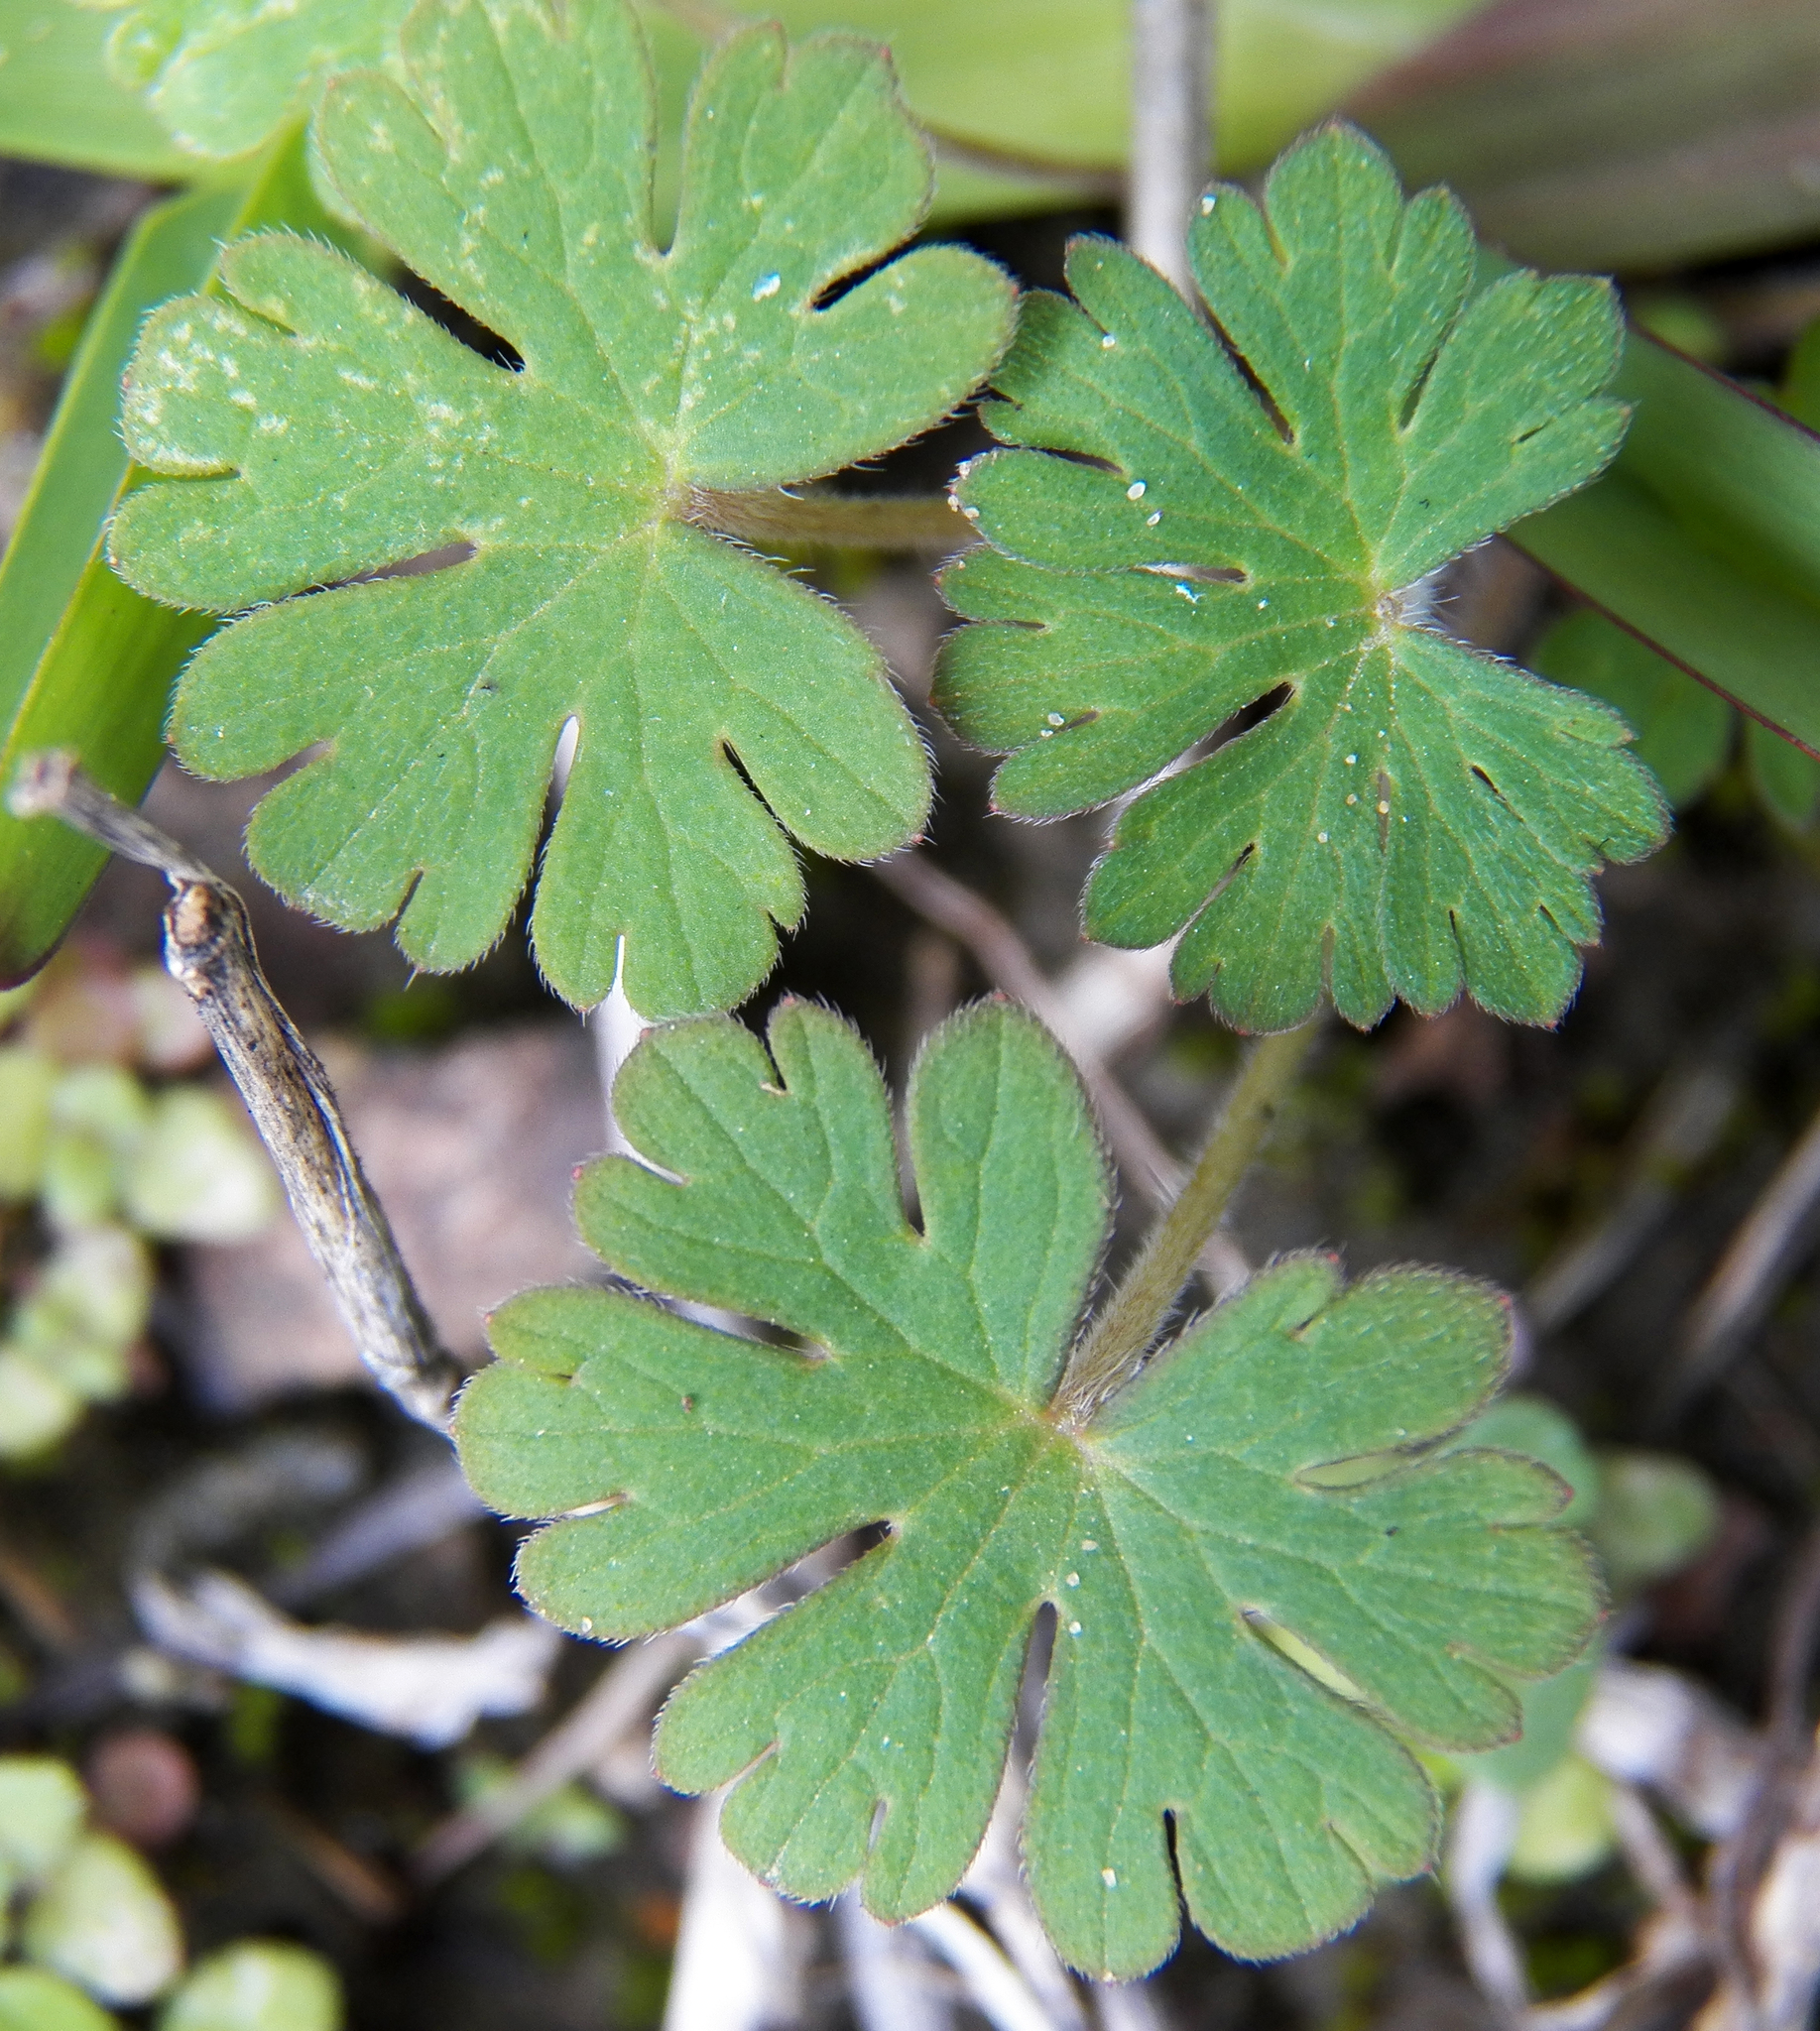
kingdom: Plantae
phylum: Tracheophyta
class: Magnoliopsida
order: Geraniales
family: Geraniaceae
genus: Geranium
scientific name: Geranium carolinianum
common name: Carolina crane's-bill
